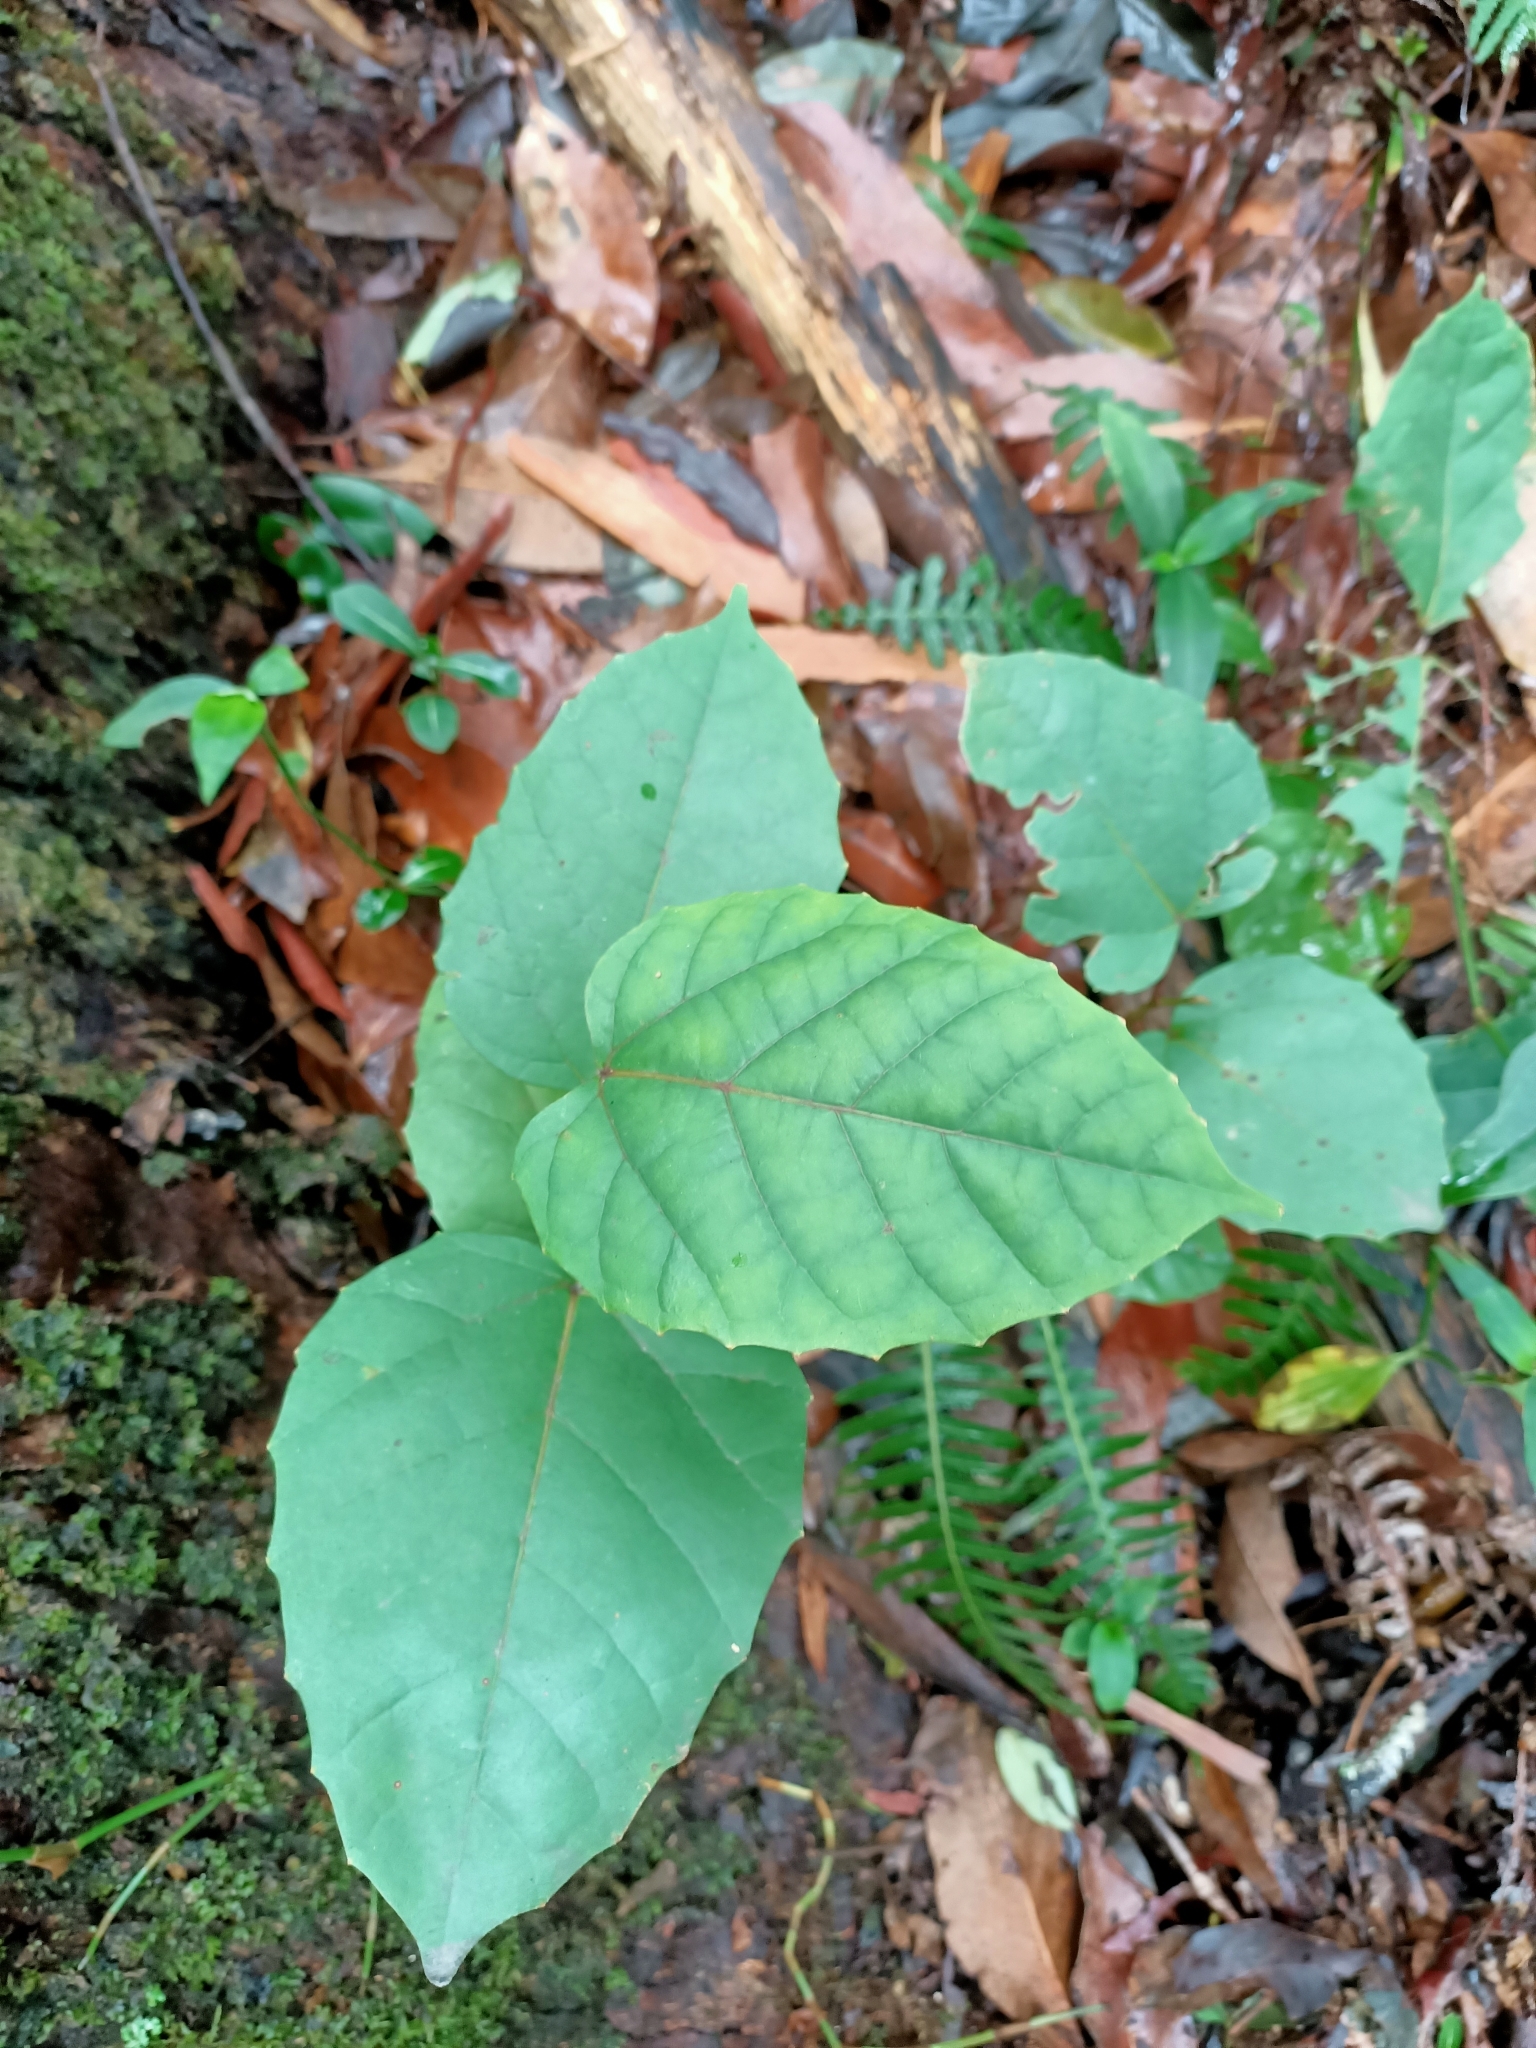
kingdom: Plantae
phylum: Tracheophyta
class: Magnoliopsida
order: Vitales
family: Vitaceae
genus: Cissus
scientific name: Cissus antarctica
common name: Kangaroo vine
